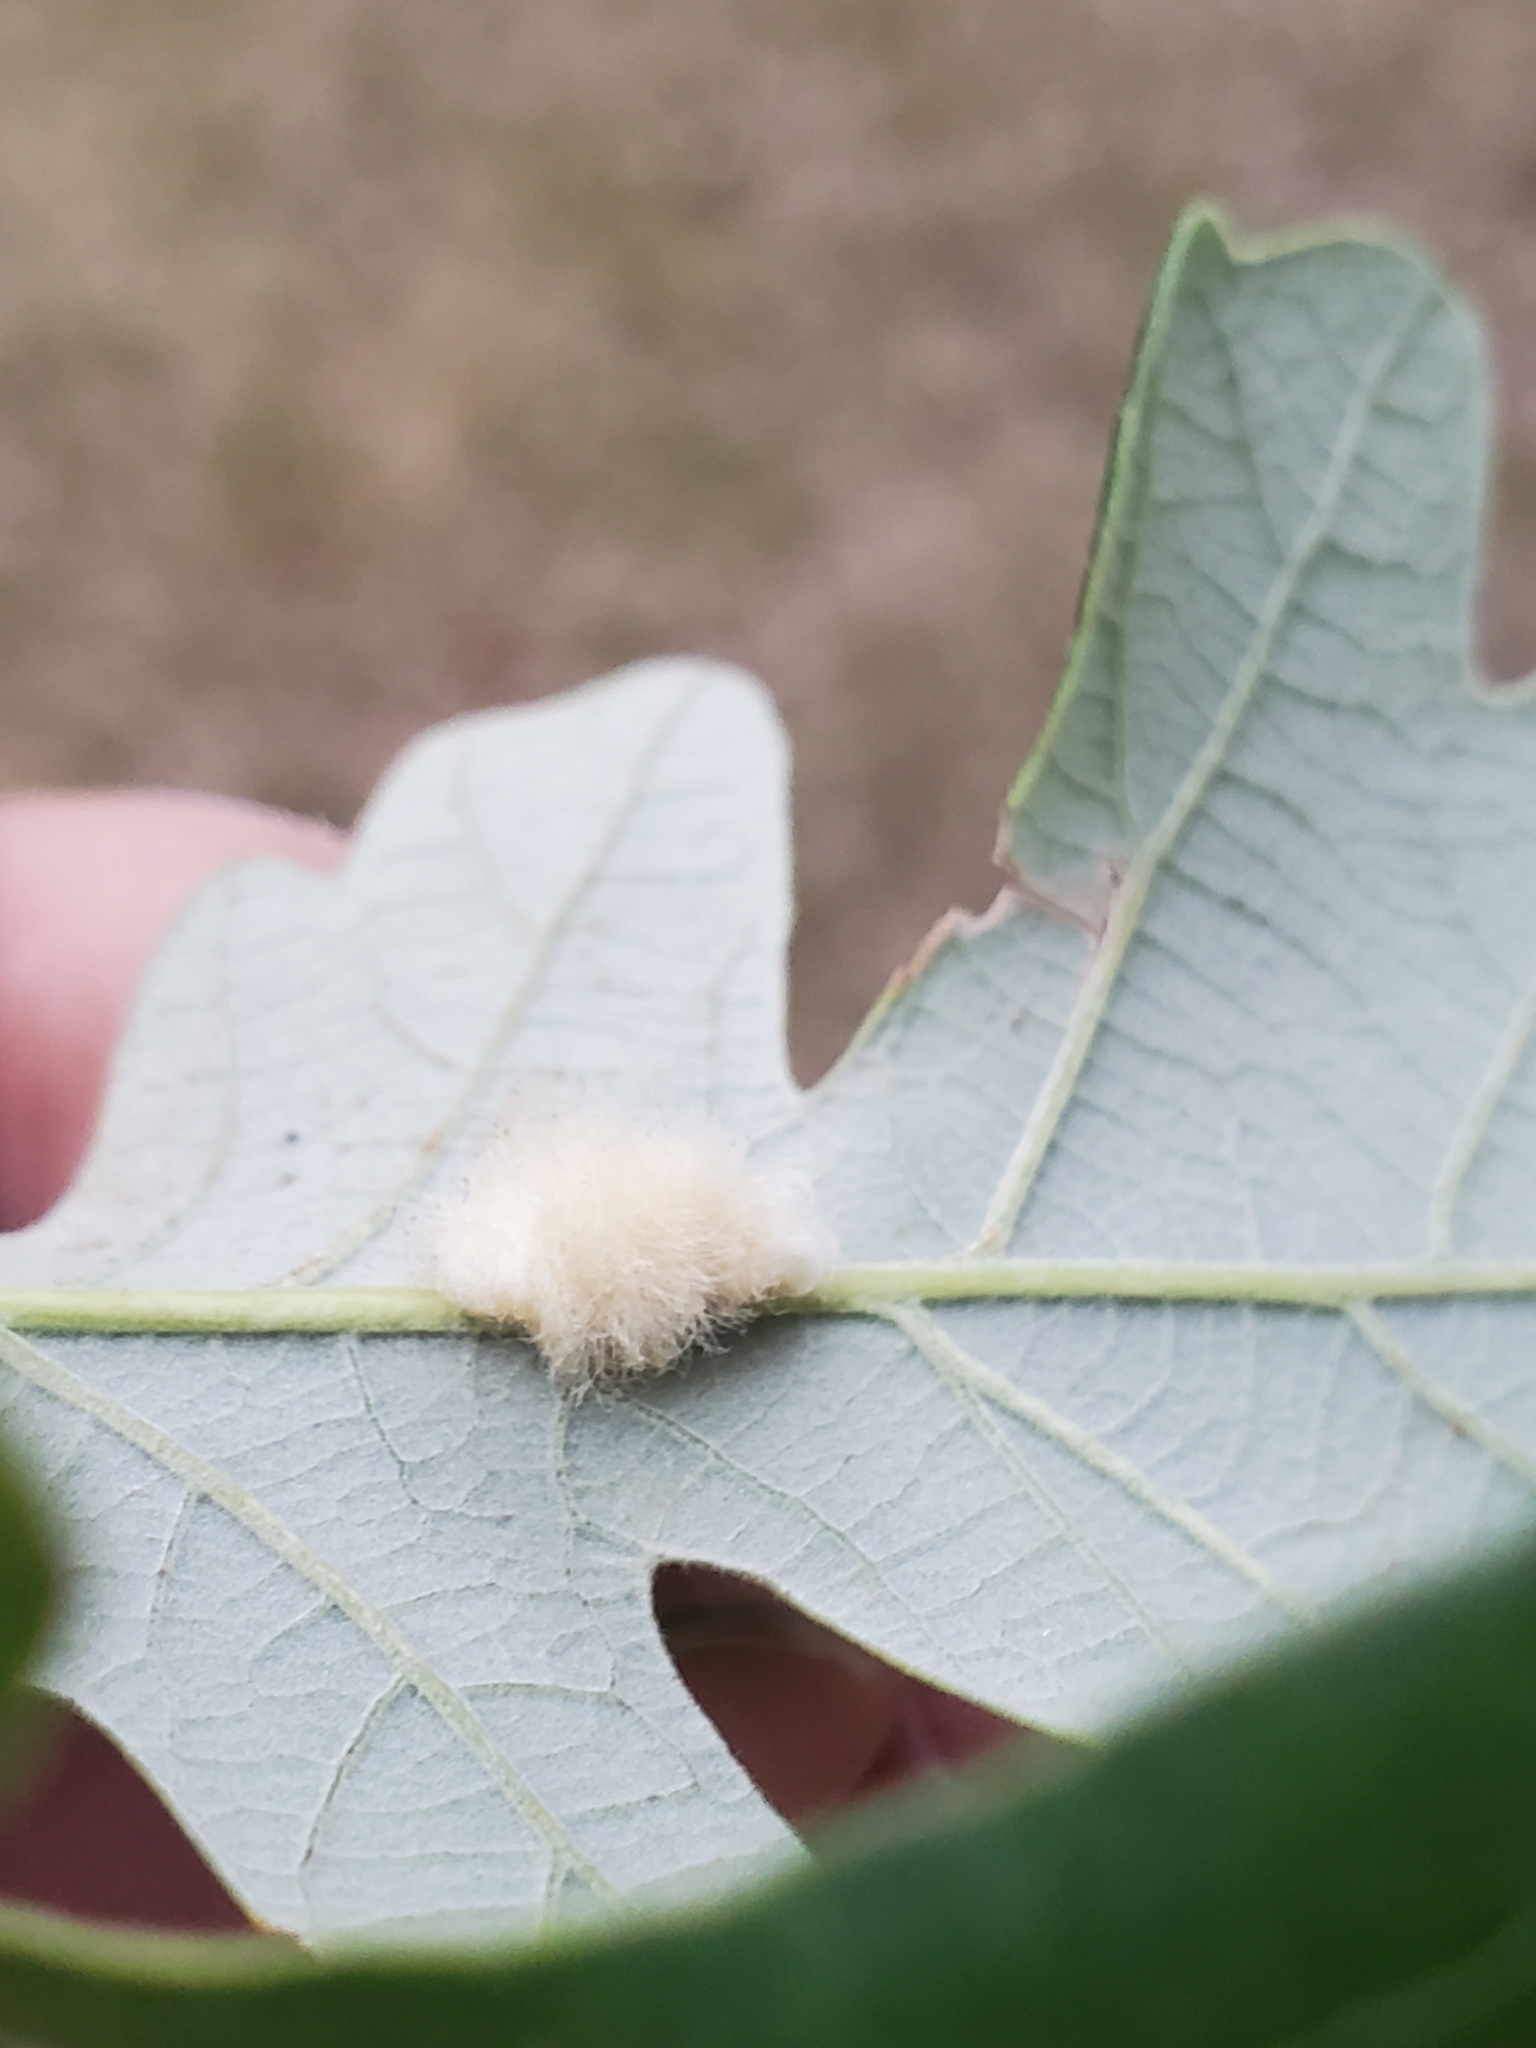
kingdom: Animalia
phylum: Arthropoda
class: Insecta
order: Hymenoptera
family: Cynipidae
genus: Andricus
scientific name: Andricus Druon ignotum
